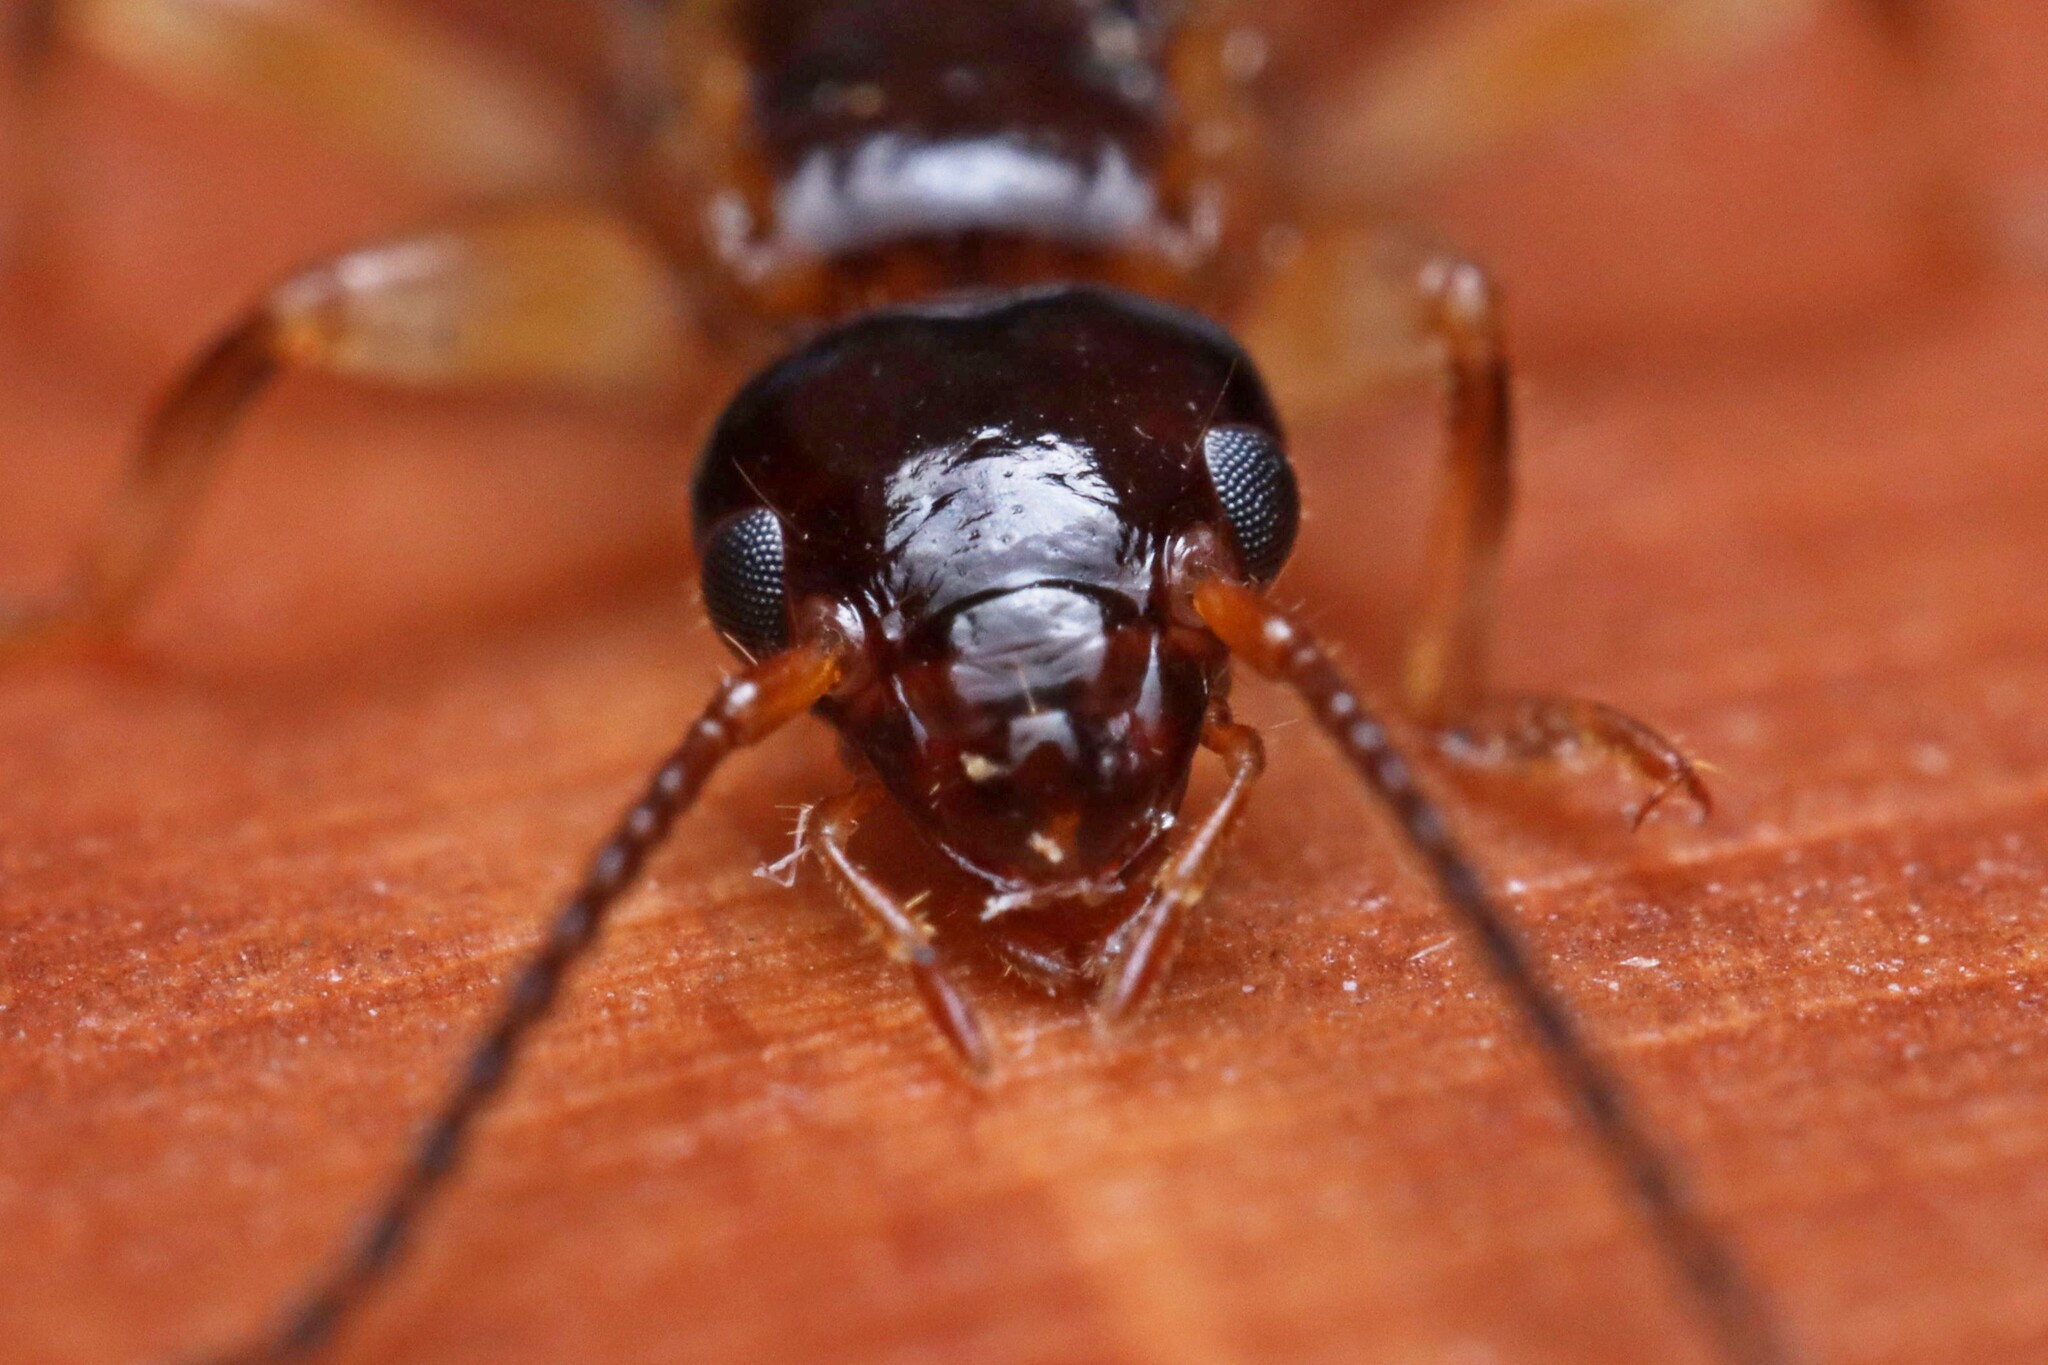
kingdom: Animalia
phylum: Arthropoda
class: Insecta
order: Dermaptera
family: Anisolabididae
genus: Euborellia
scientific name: Euborellia annulipes
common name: Ringlegged earwig
